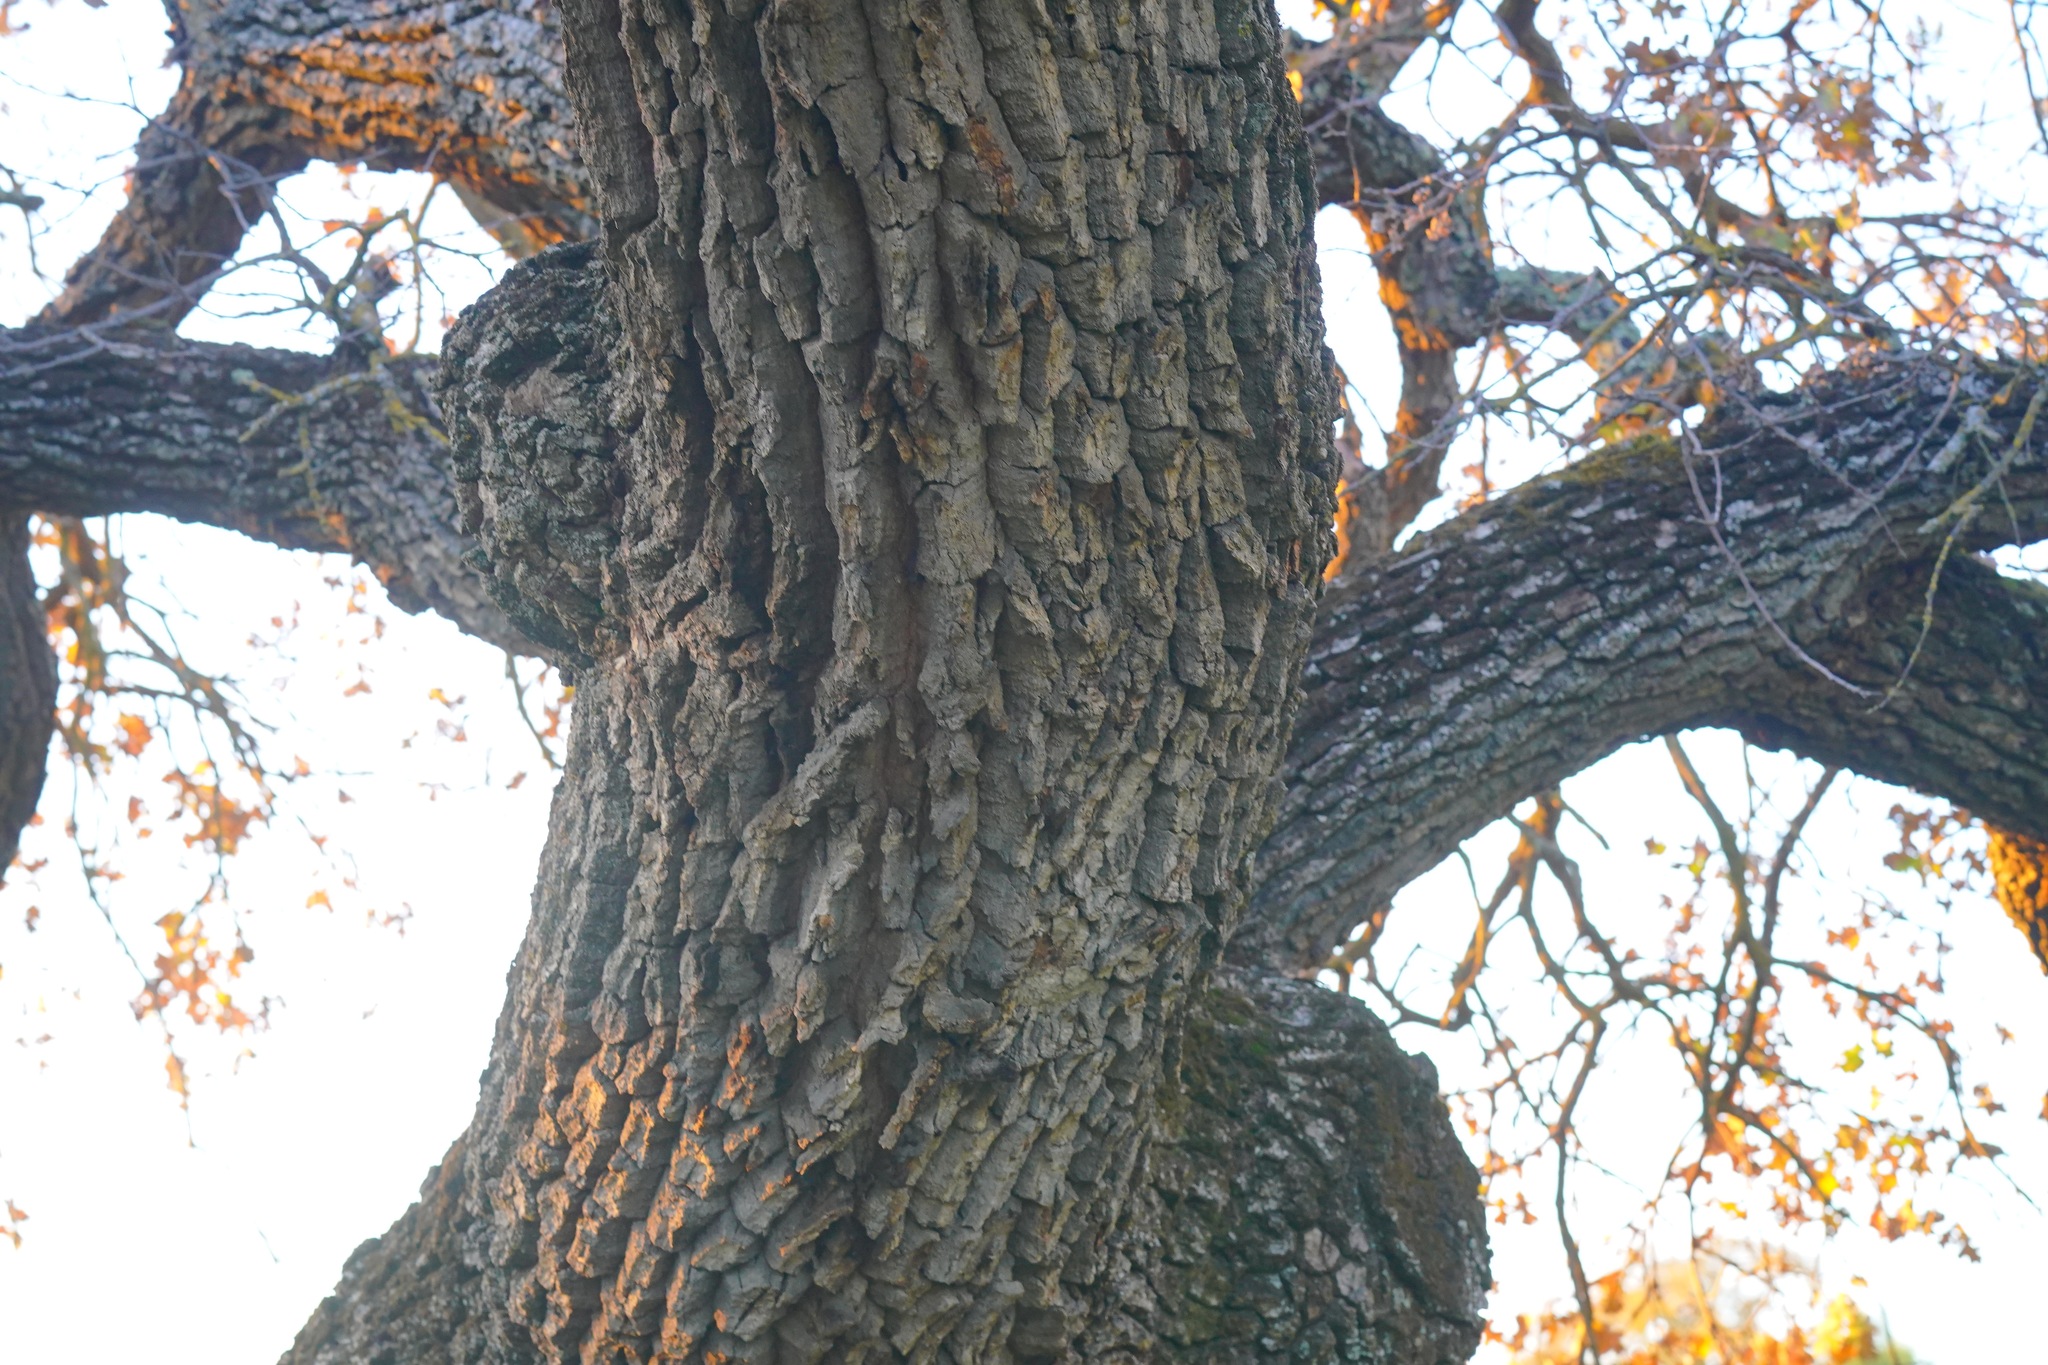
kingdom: Plantae
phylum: Tracheophyta
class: Magnoliopsida
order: Fagales
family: Fagaceae
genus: Quercus
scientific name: Quercus garryana
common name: Garry oak
